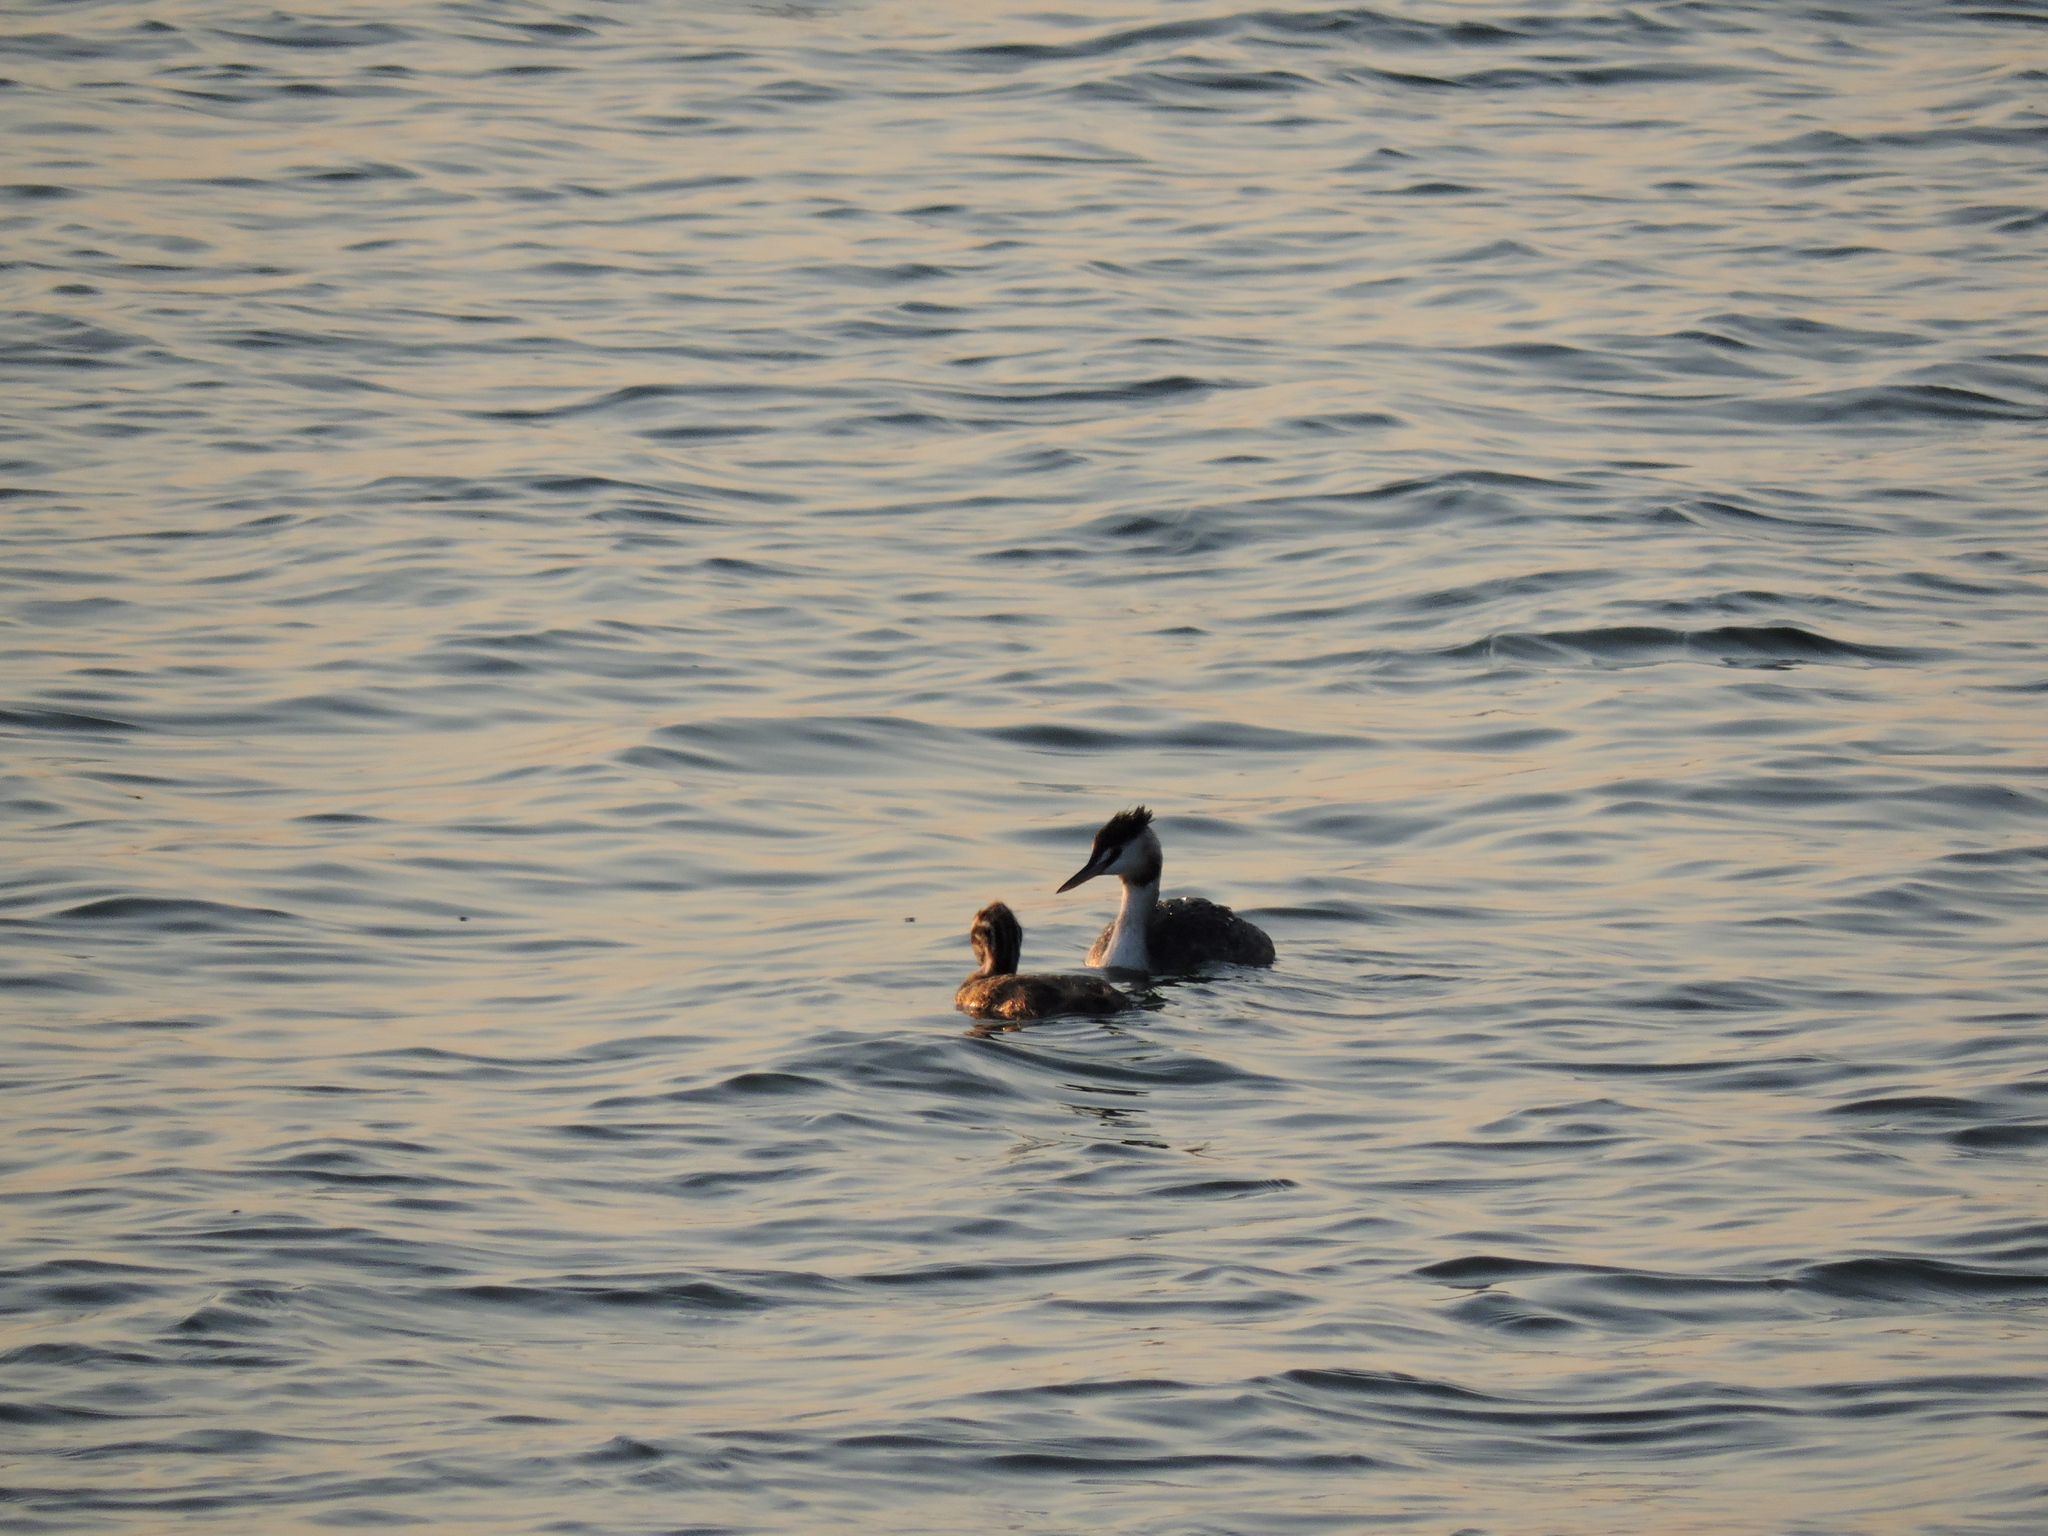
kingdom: Animalia
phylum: Chordata
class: Aves
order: Podicipediformes
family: Podicipedidae
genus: Podiceps
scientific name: Podiceps cristatus
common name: Great crested grebe
